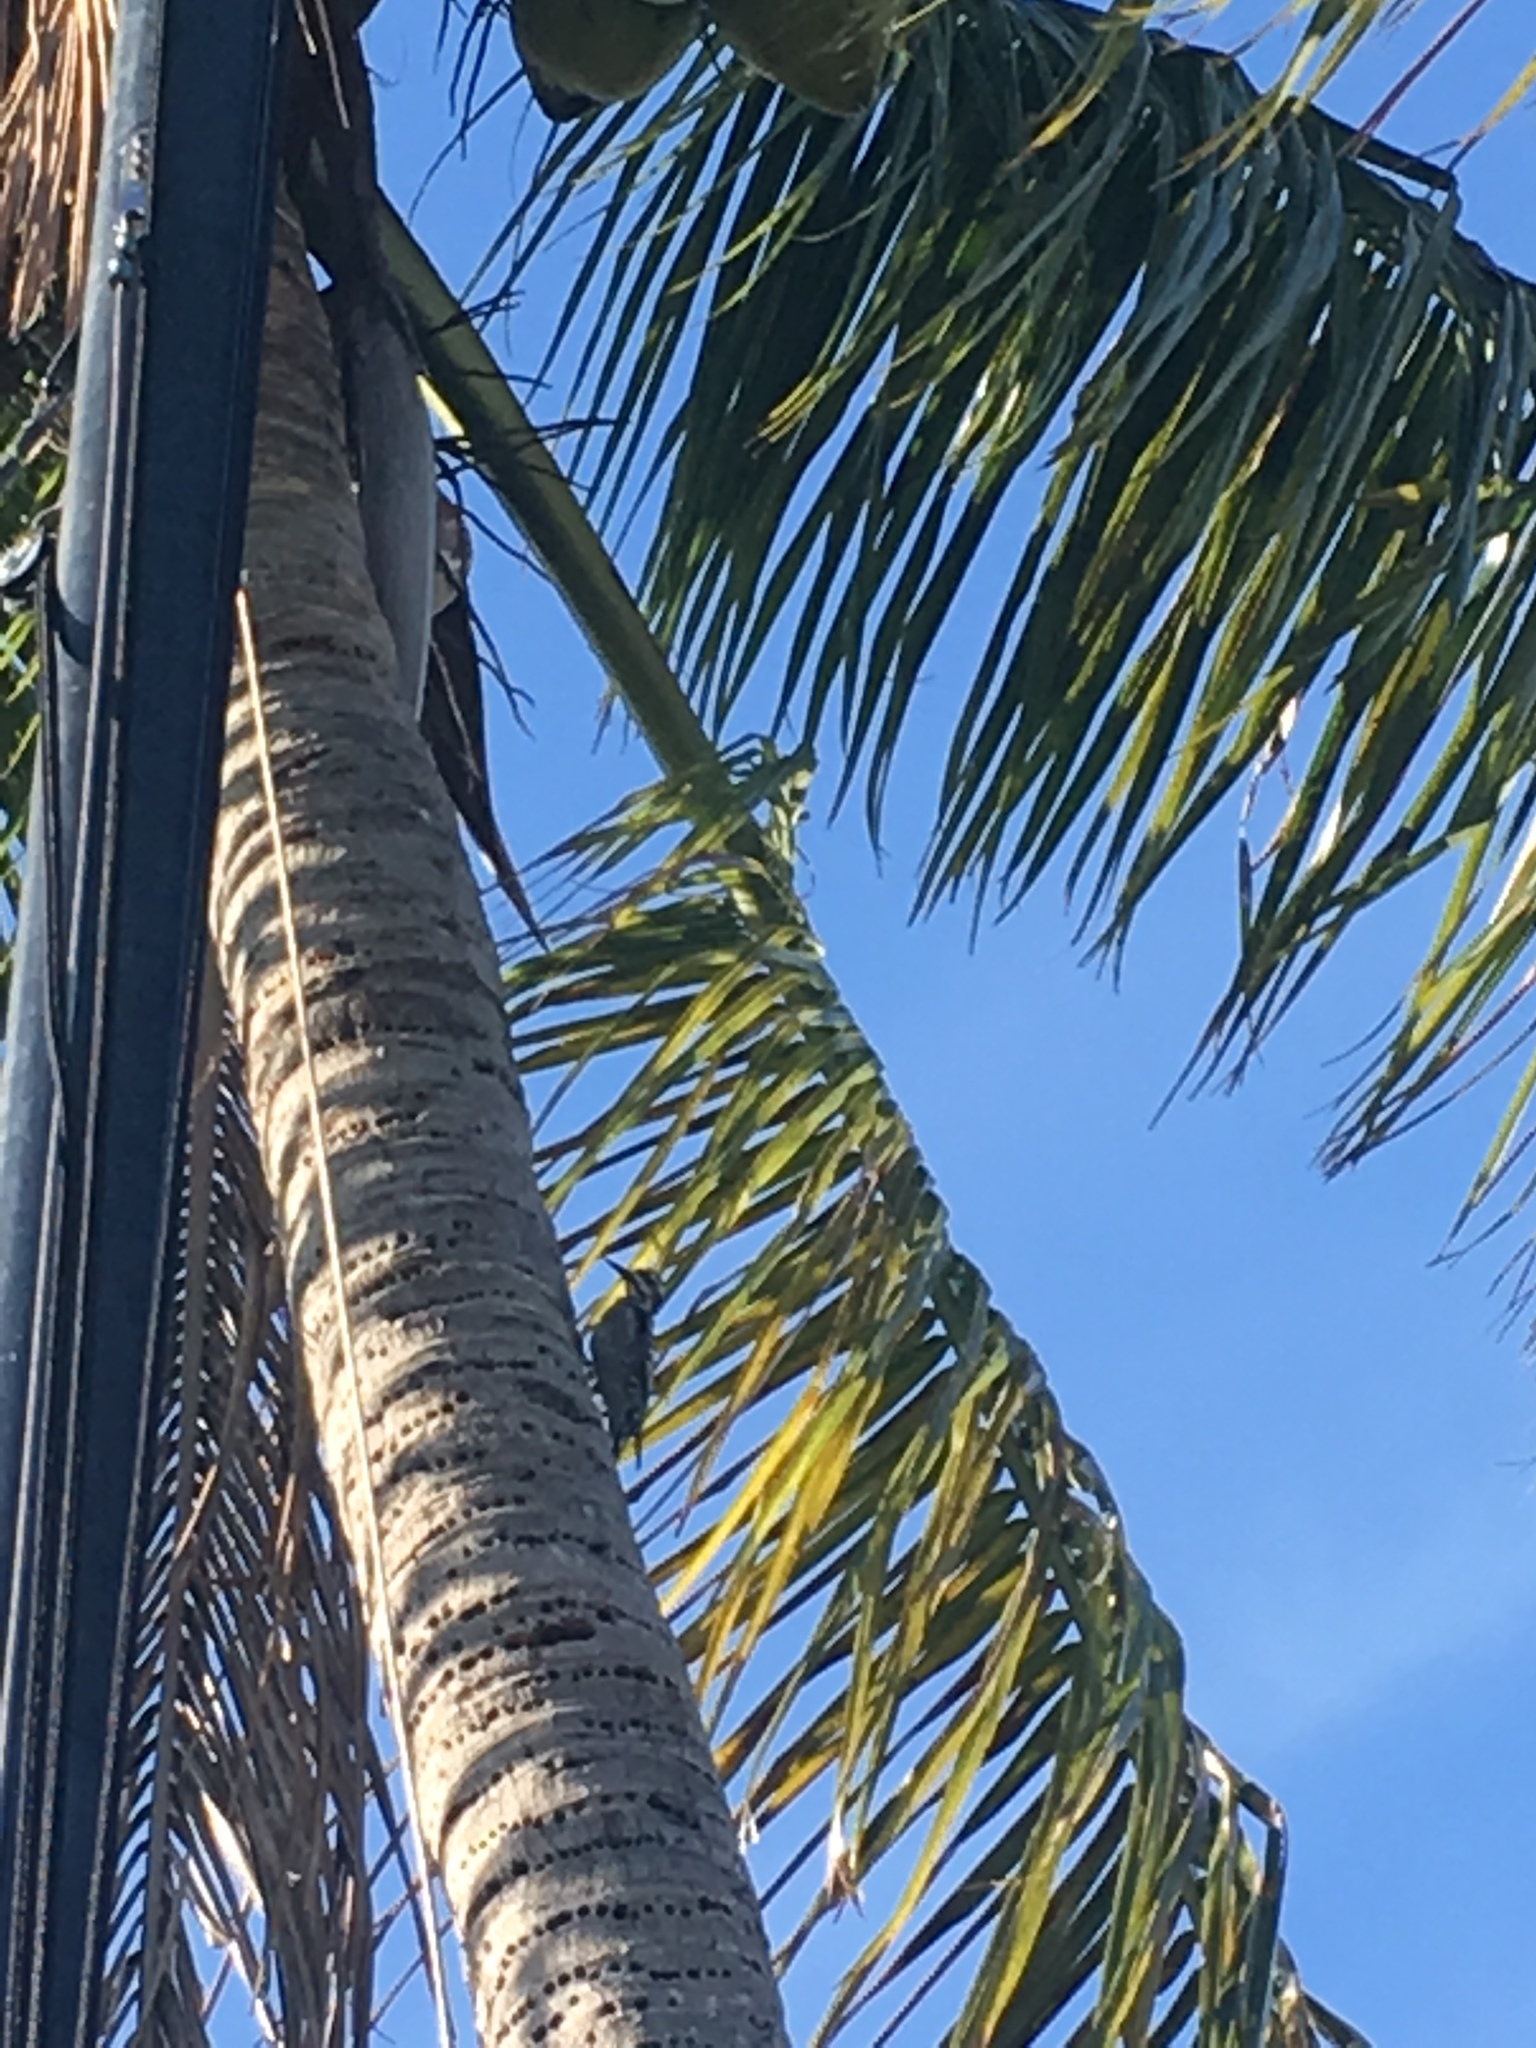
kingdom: Animalia
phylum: Chordata
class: Aves
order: Piciformes
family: Picidae
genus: Sphyrapicus
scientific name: Sphyrapicus varius
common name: Yellow-bellied sapsucker
